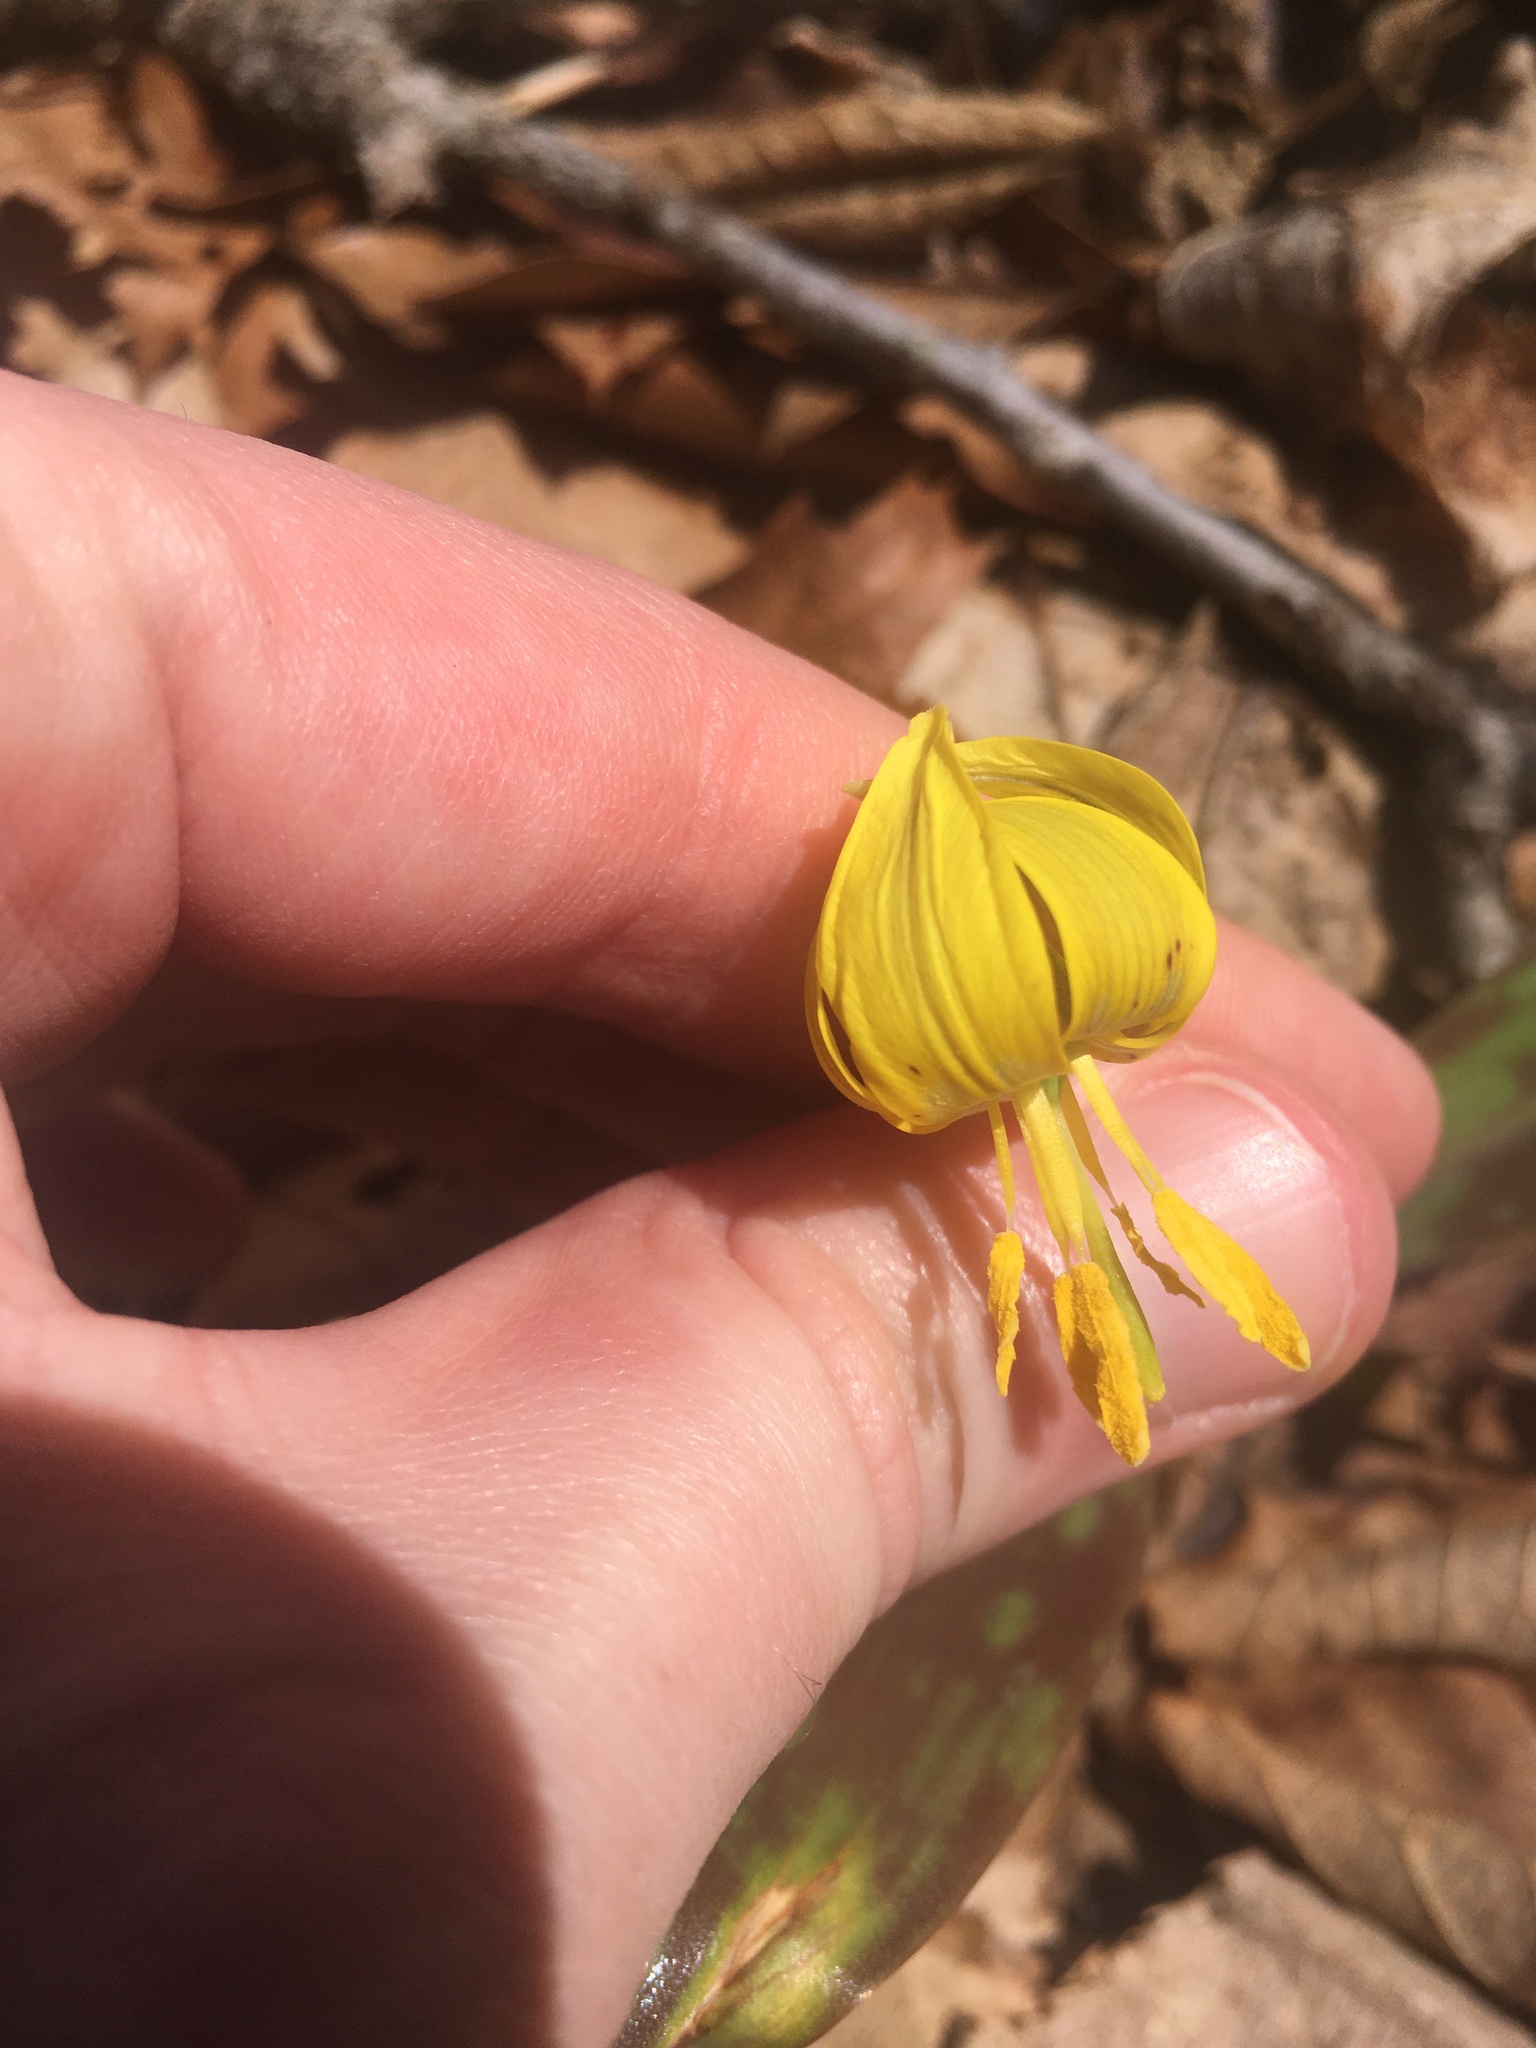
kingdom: Plantae
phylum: Tracheophyta
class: Liliopsida
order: Liliales
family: Liliaceae
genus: Erythronium
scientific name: Erythronium americanum
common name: Yellow adder's-tongue
